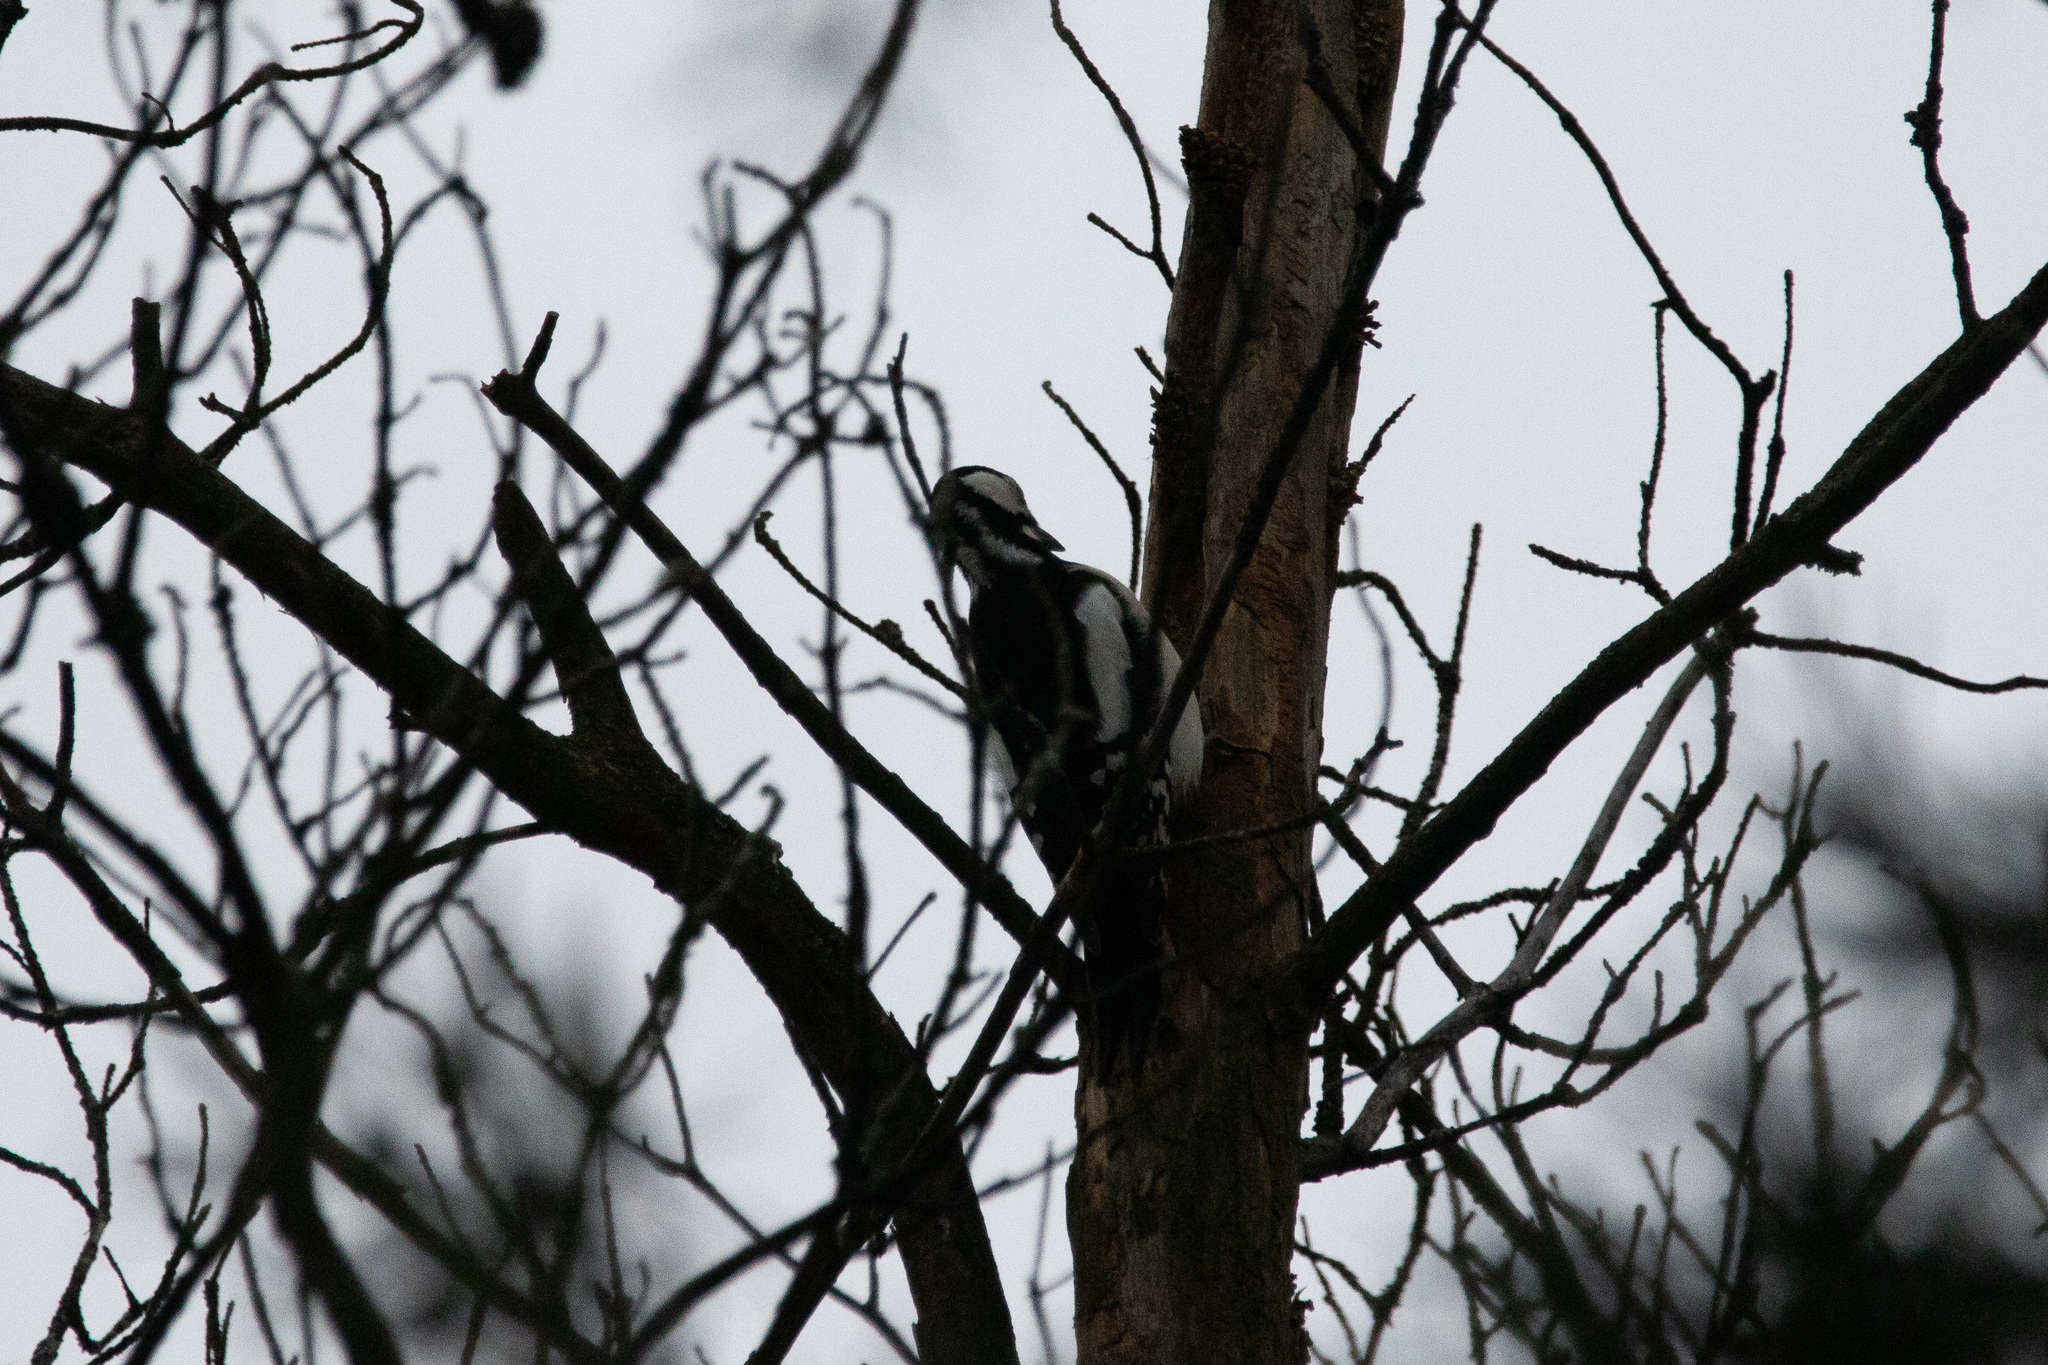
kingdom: Animalia
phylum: Chordata
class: Aves
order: Piciformes
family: Picidae
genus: Dendrocopos
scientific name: Dendrocopos major
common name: Great spotted woodpecker
